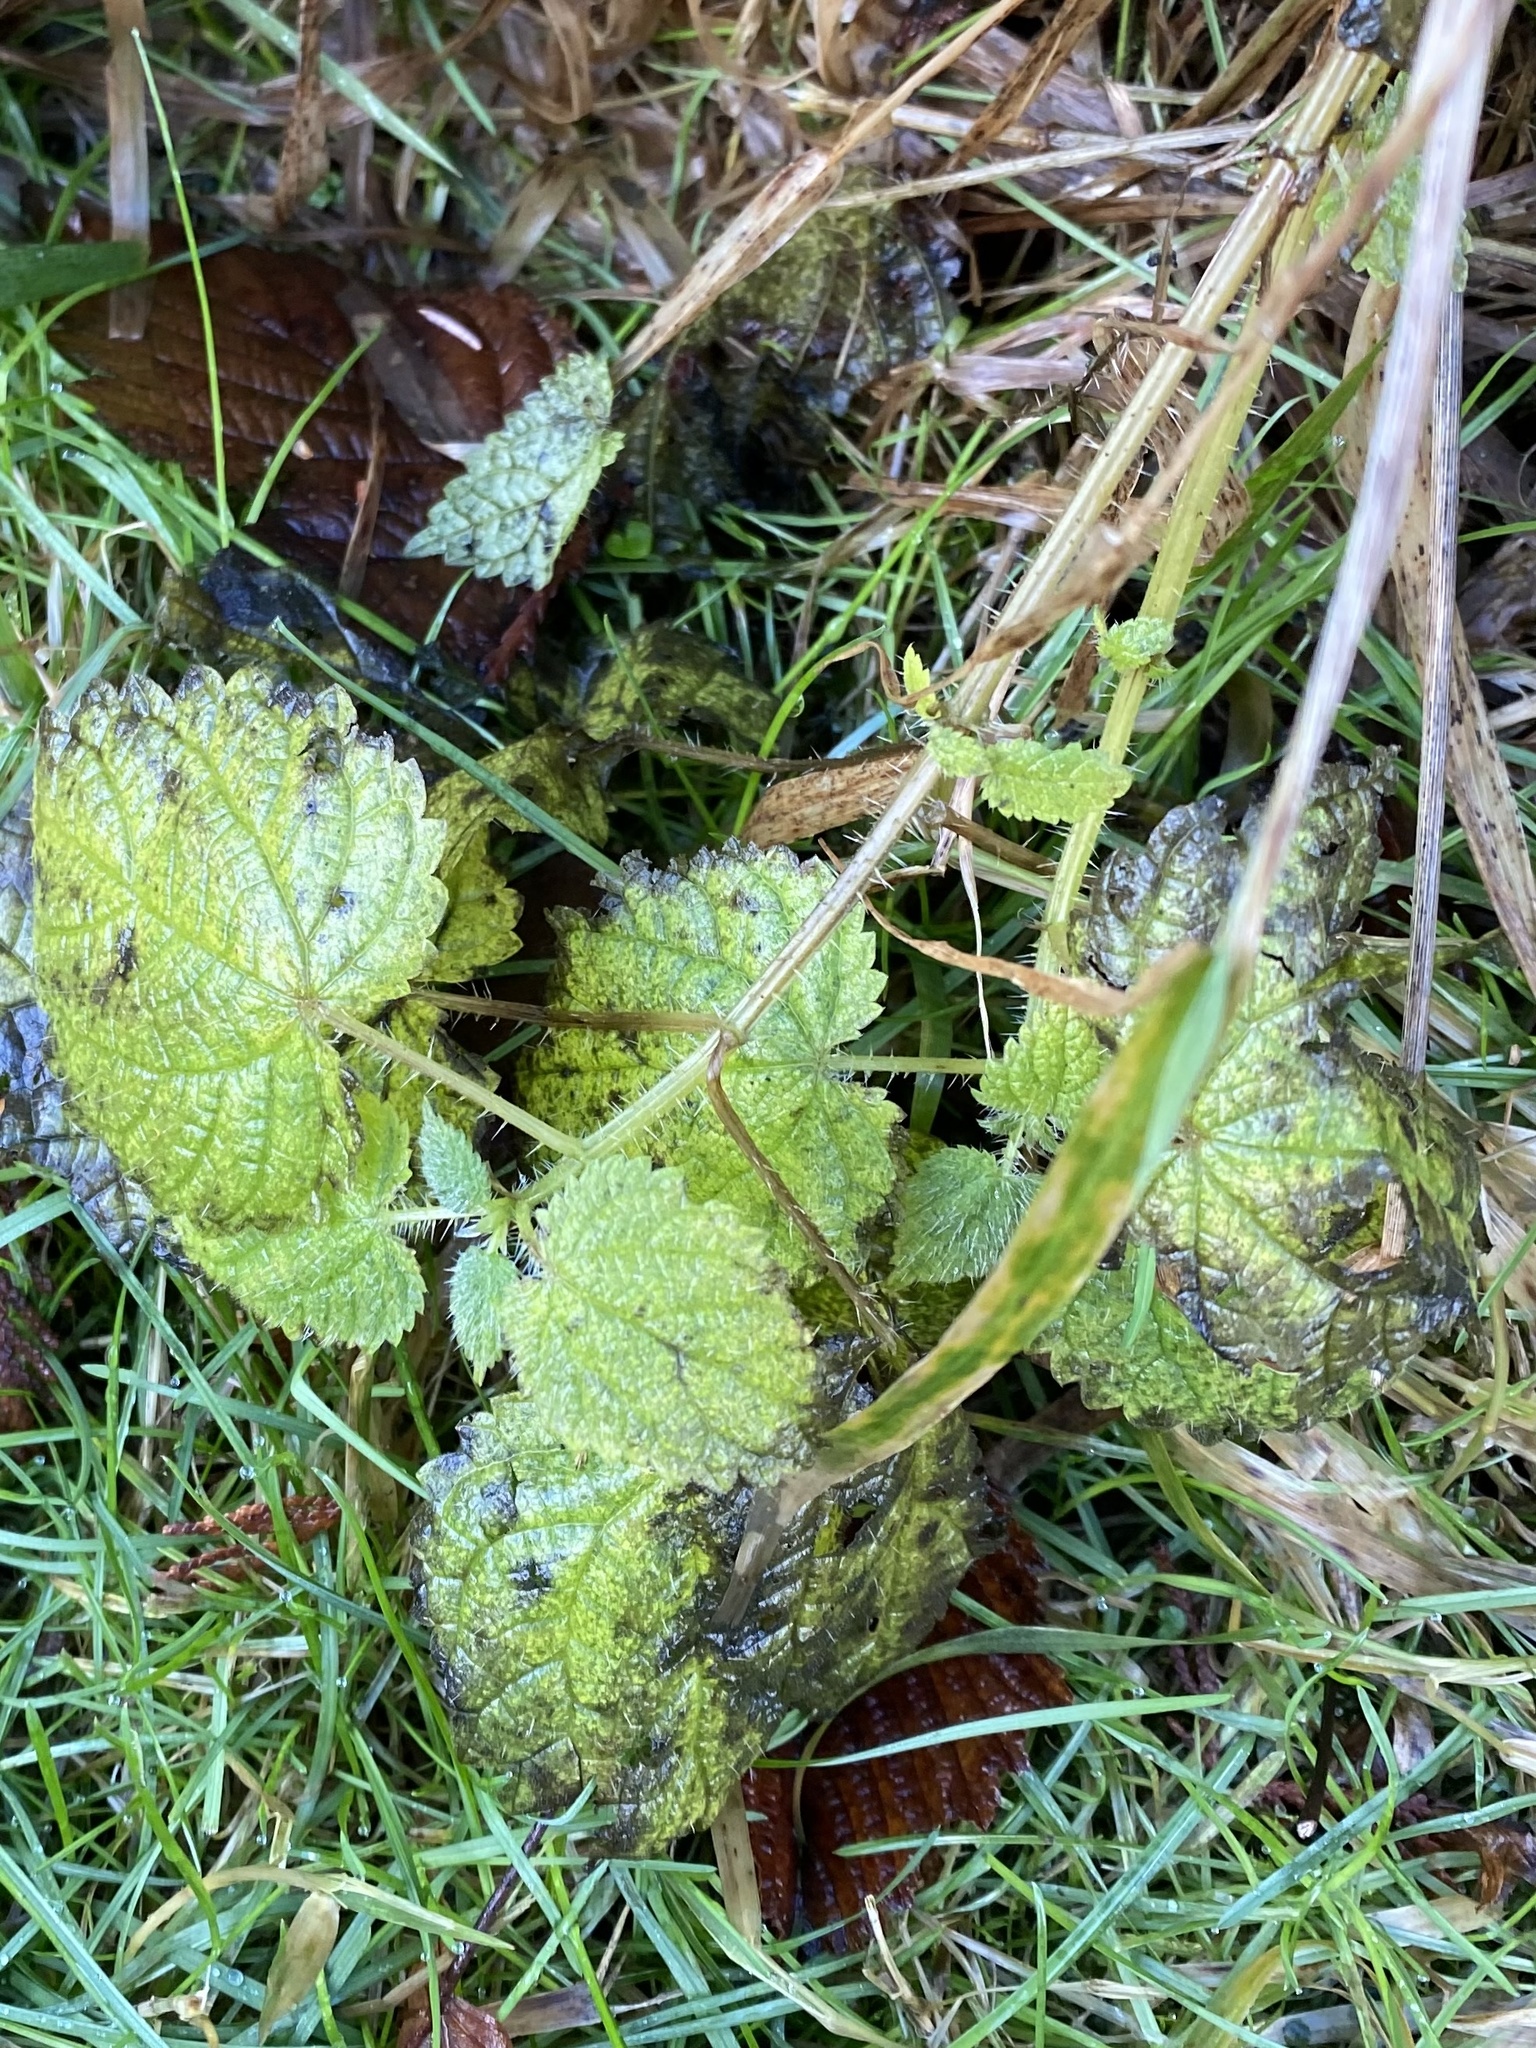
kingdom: Plantae
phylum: Tracheophyta
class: Magnoliopsida
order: Rosales
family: Urticaceae
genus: Urtica
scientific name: Urtica dioica
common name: Common nettle
